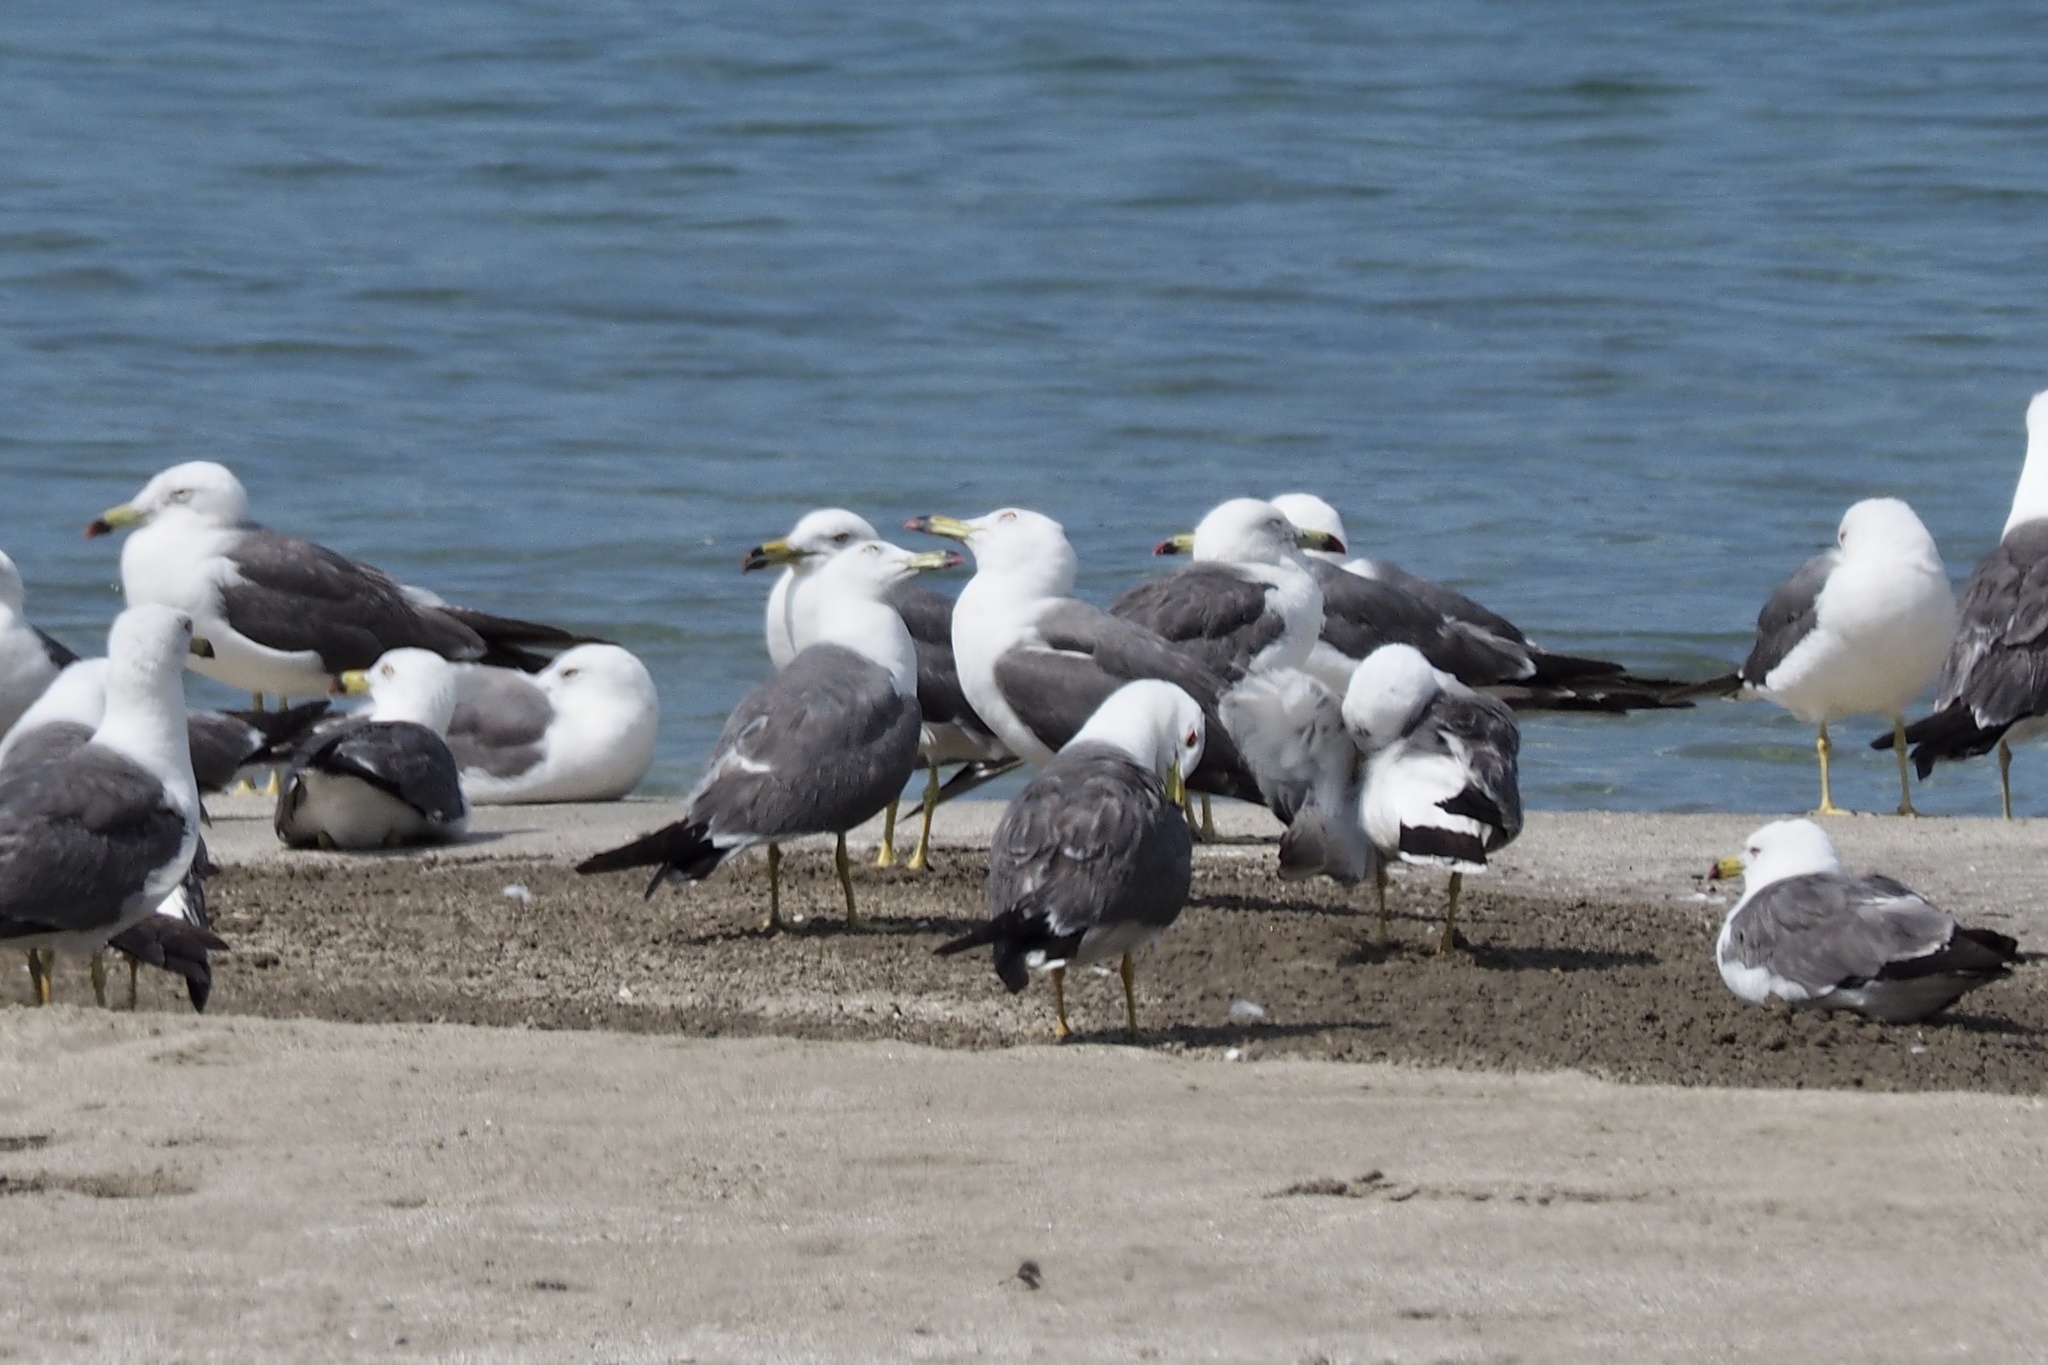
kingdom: Animalia
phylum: Chordata
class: Aves
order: Charadriiformes
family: Laridae
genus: Larus
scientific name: Larus crassirostris
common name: Black-tailed gull
